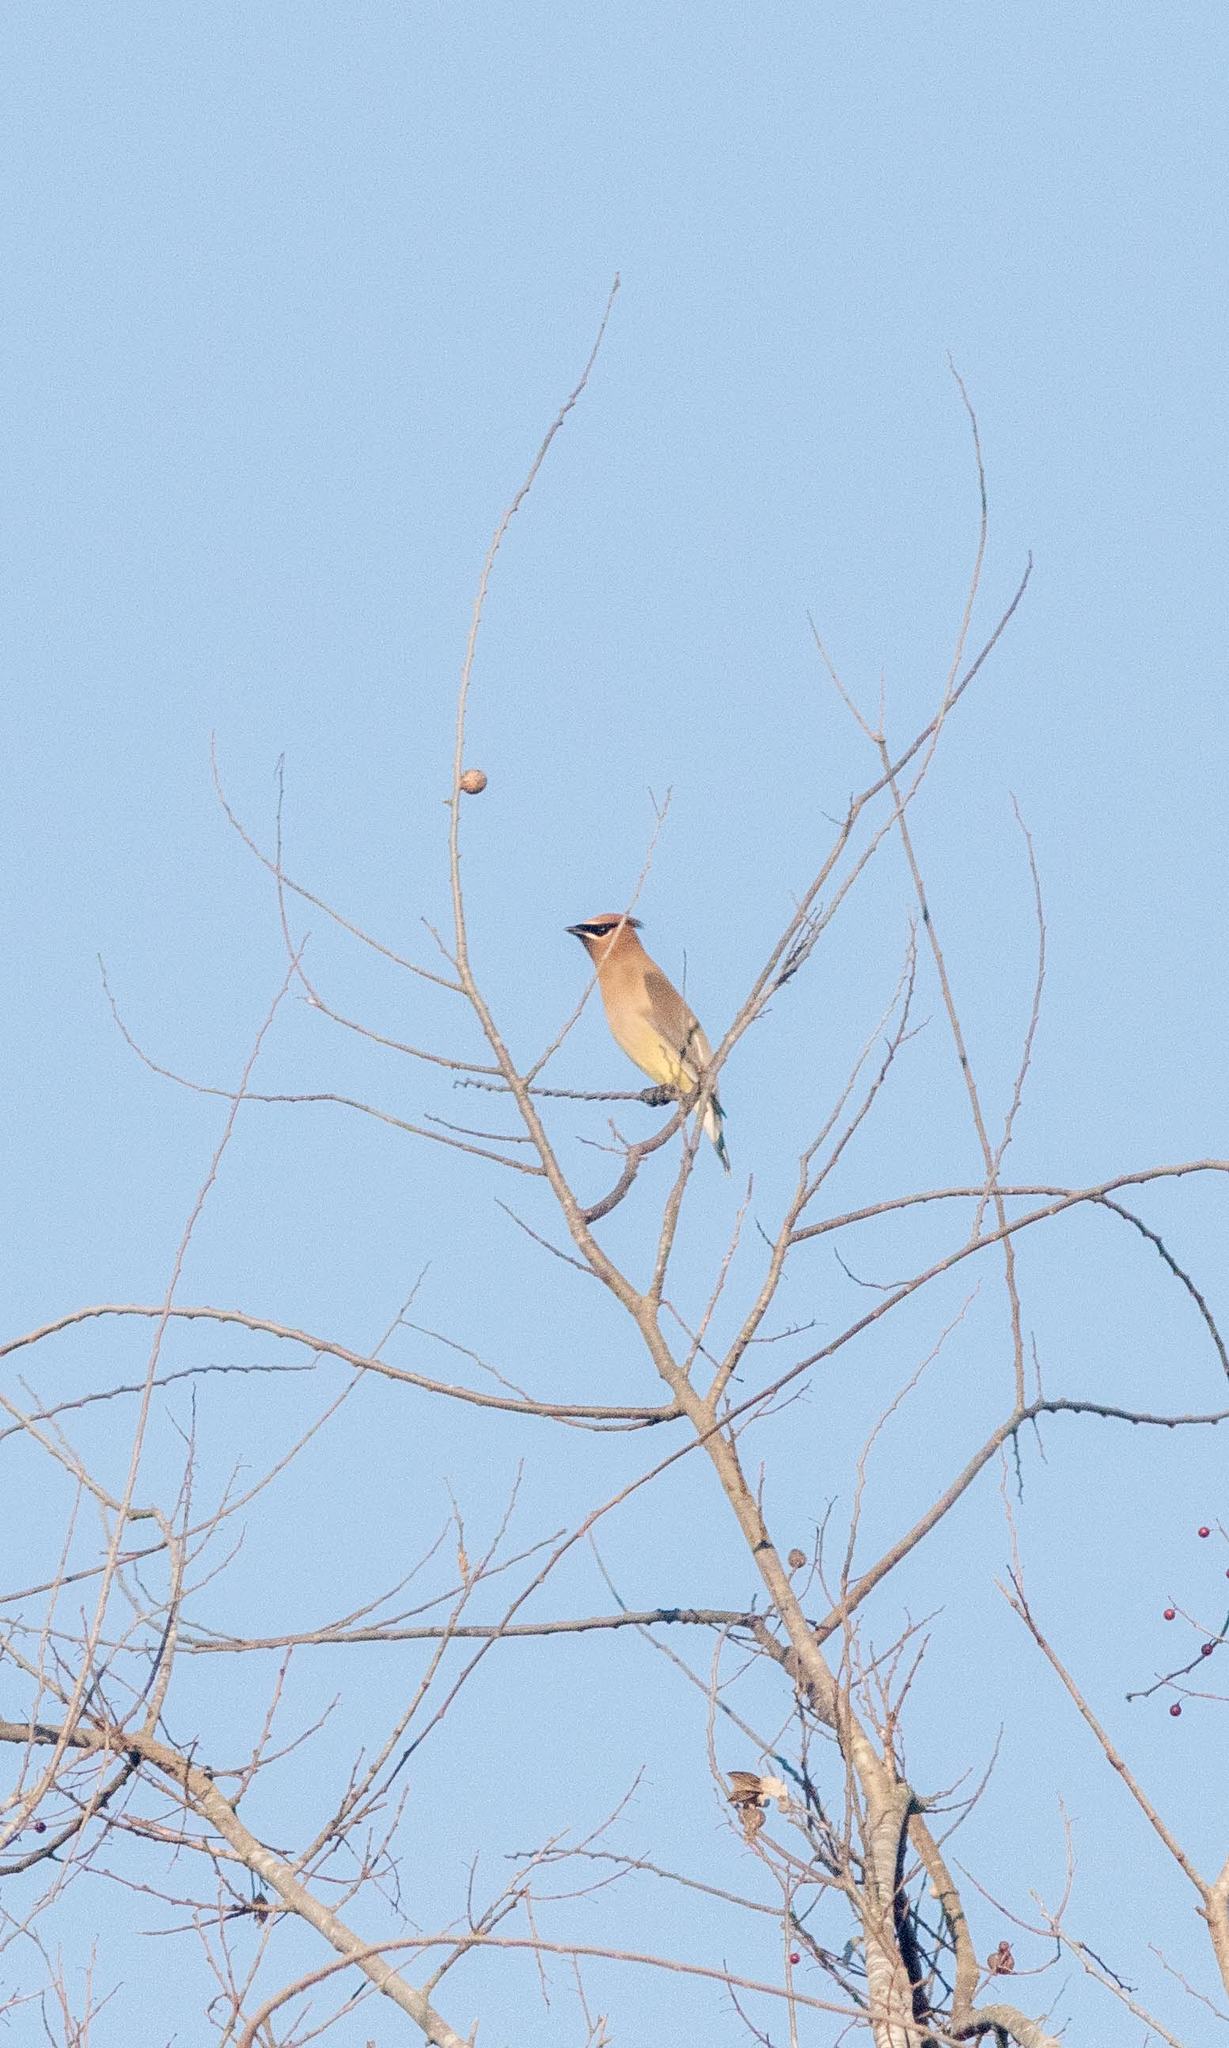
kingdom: Animalia
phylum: Chordata
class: Aves
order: Passeriformes
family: Bombycillidae
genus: Bombycilla
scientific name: Bombycilla cedrorum
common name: Cedar waxwing
